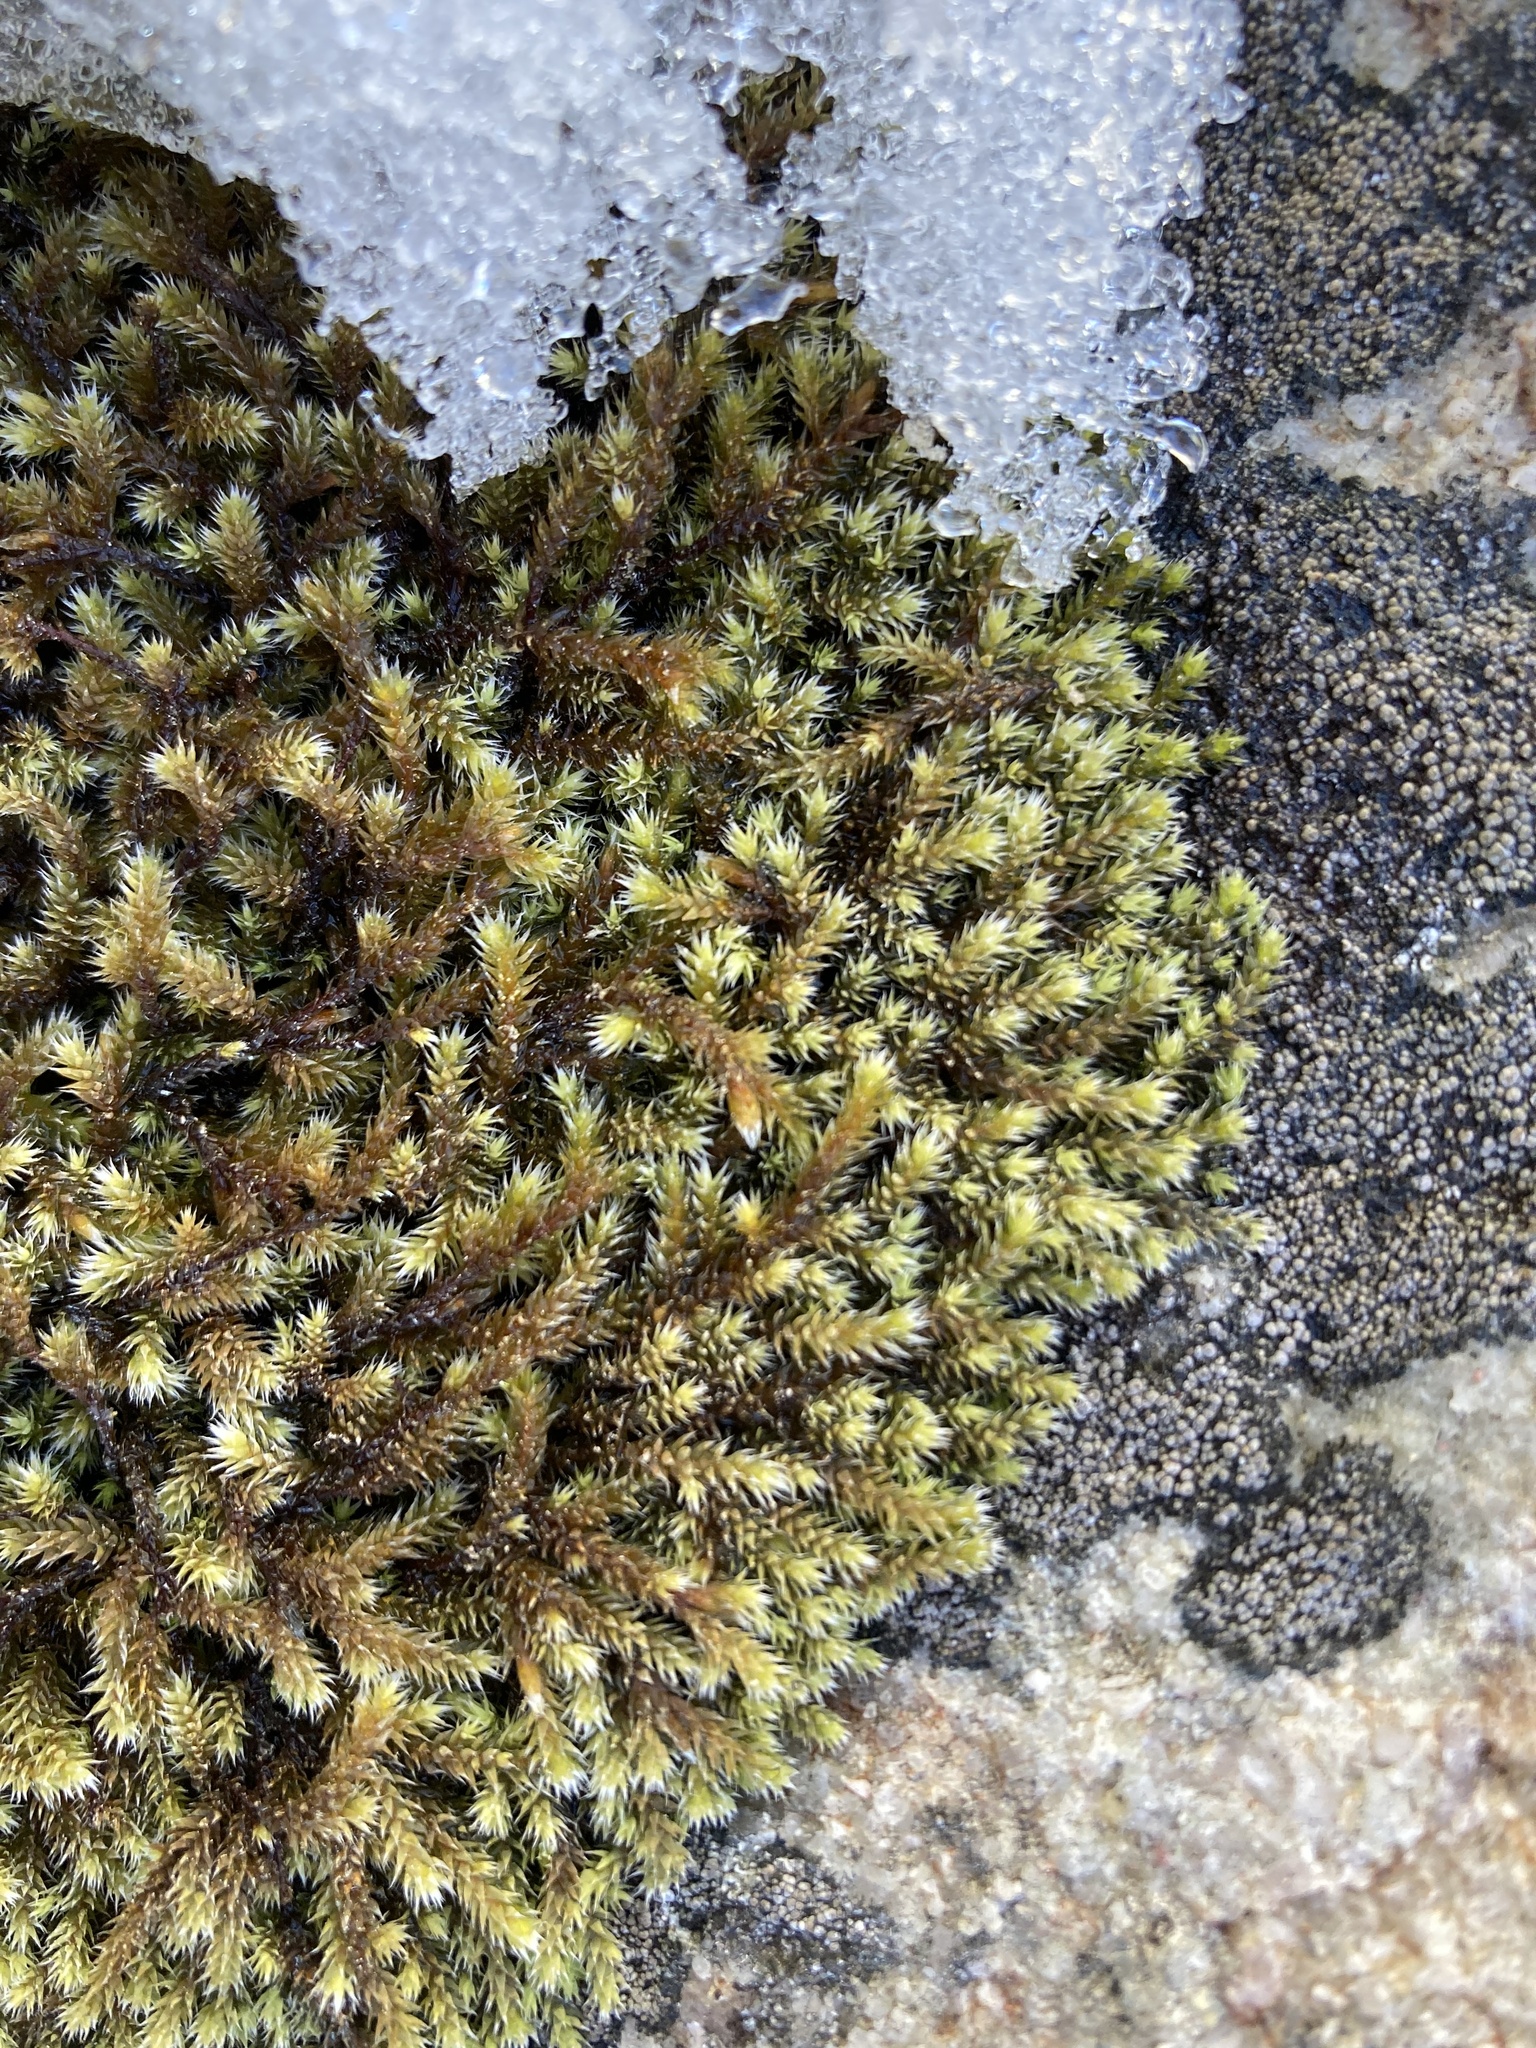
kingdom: Plantae
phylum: Bryophyta
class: Bryopsida
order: Hedwigiales
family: Hedwigiaceae
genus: Hedwigia
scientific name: Hedwigia ciliata
